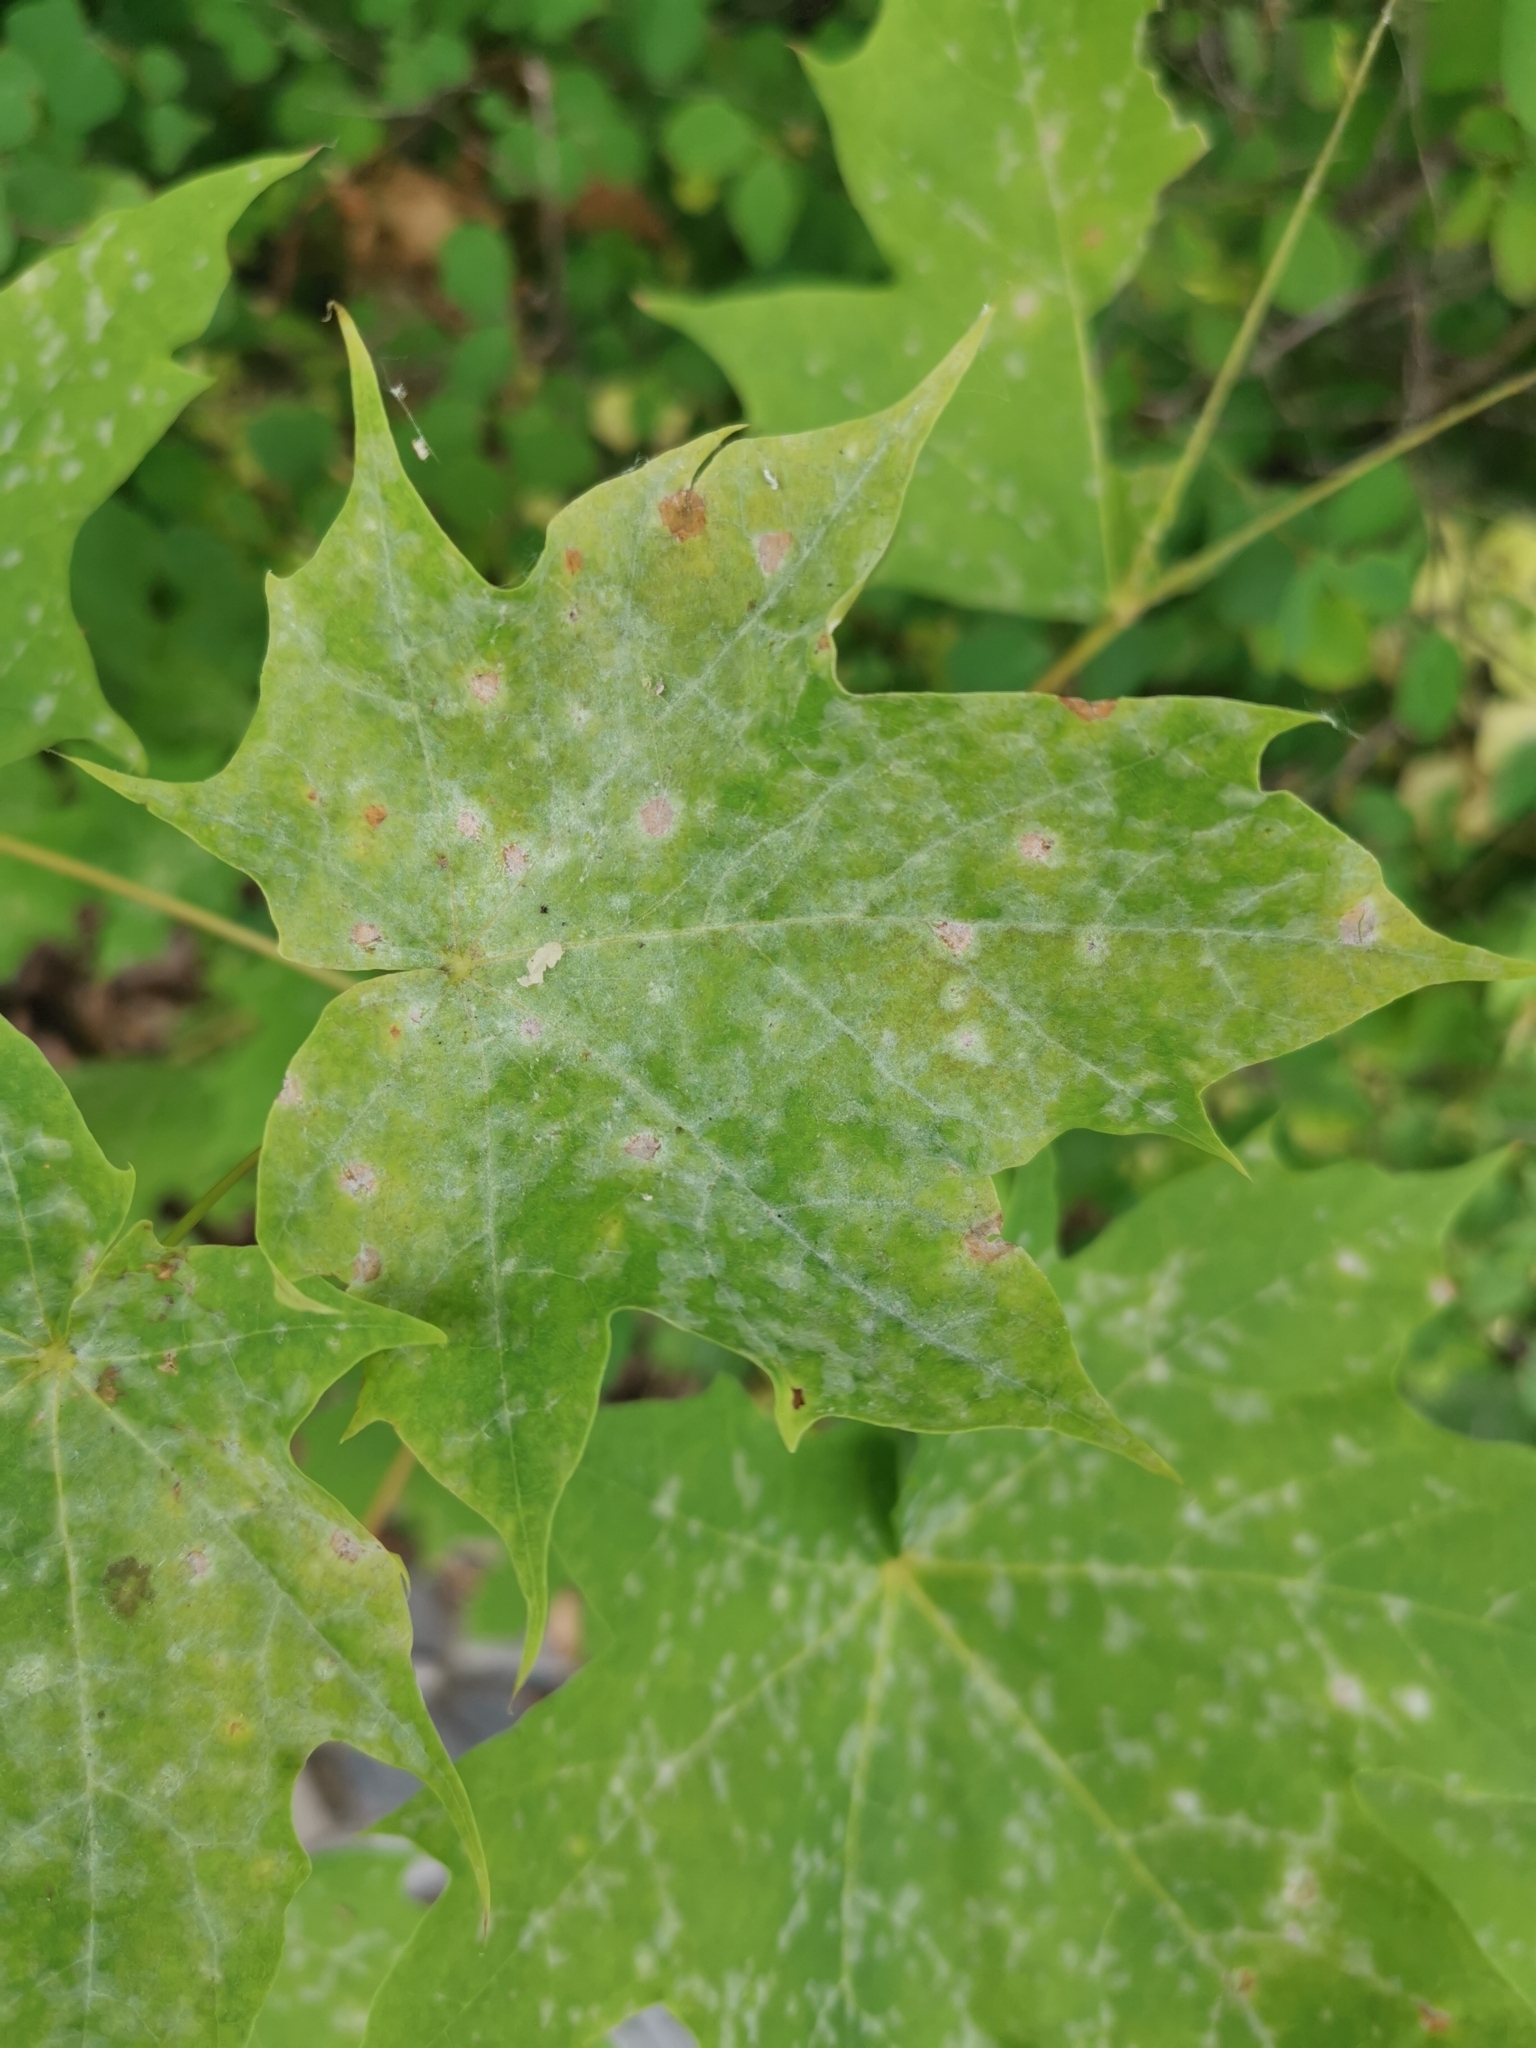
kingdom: Plantae
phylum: Tracheophyta
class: Magnoliopsida
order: Sapindales
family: Sapindaceae
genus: Acer
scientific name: Acer platanoides
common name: Norway maple
